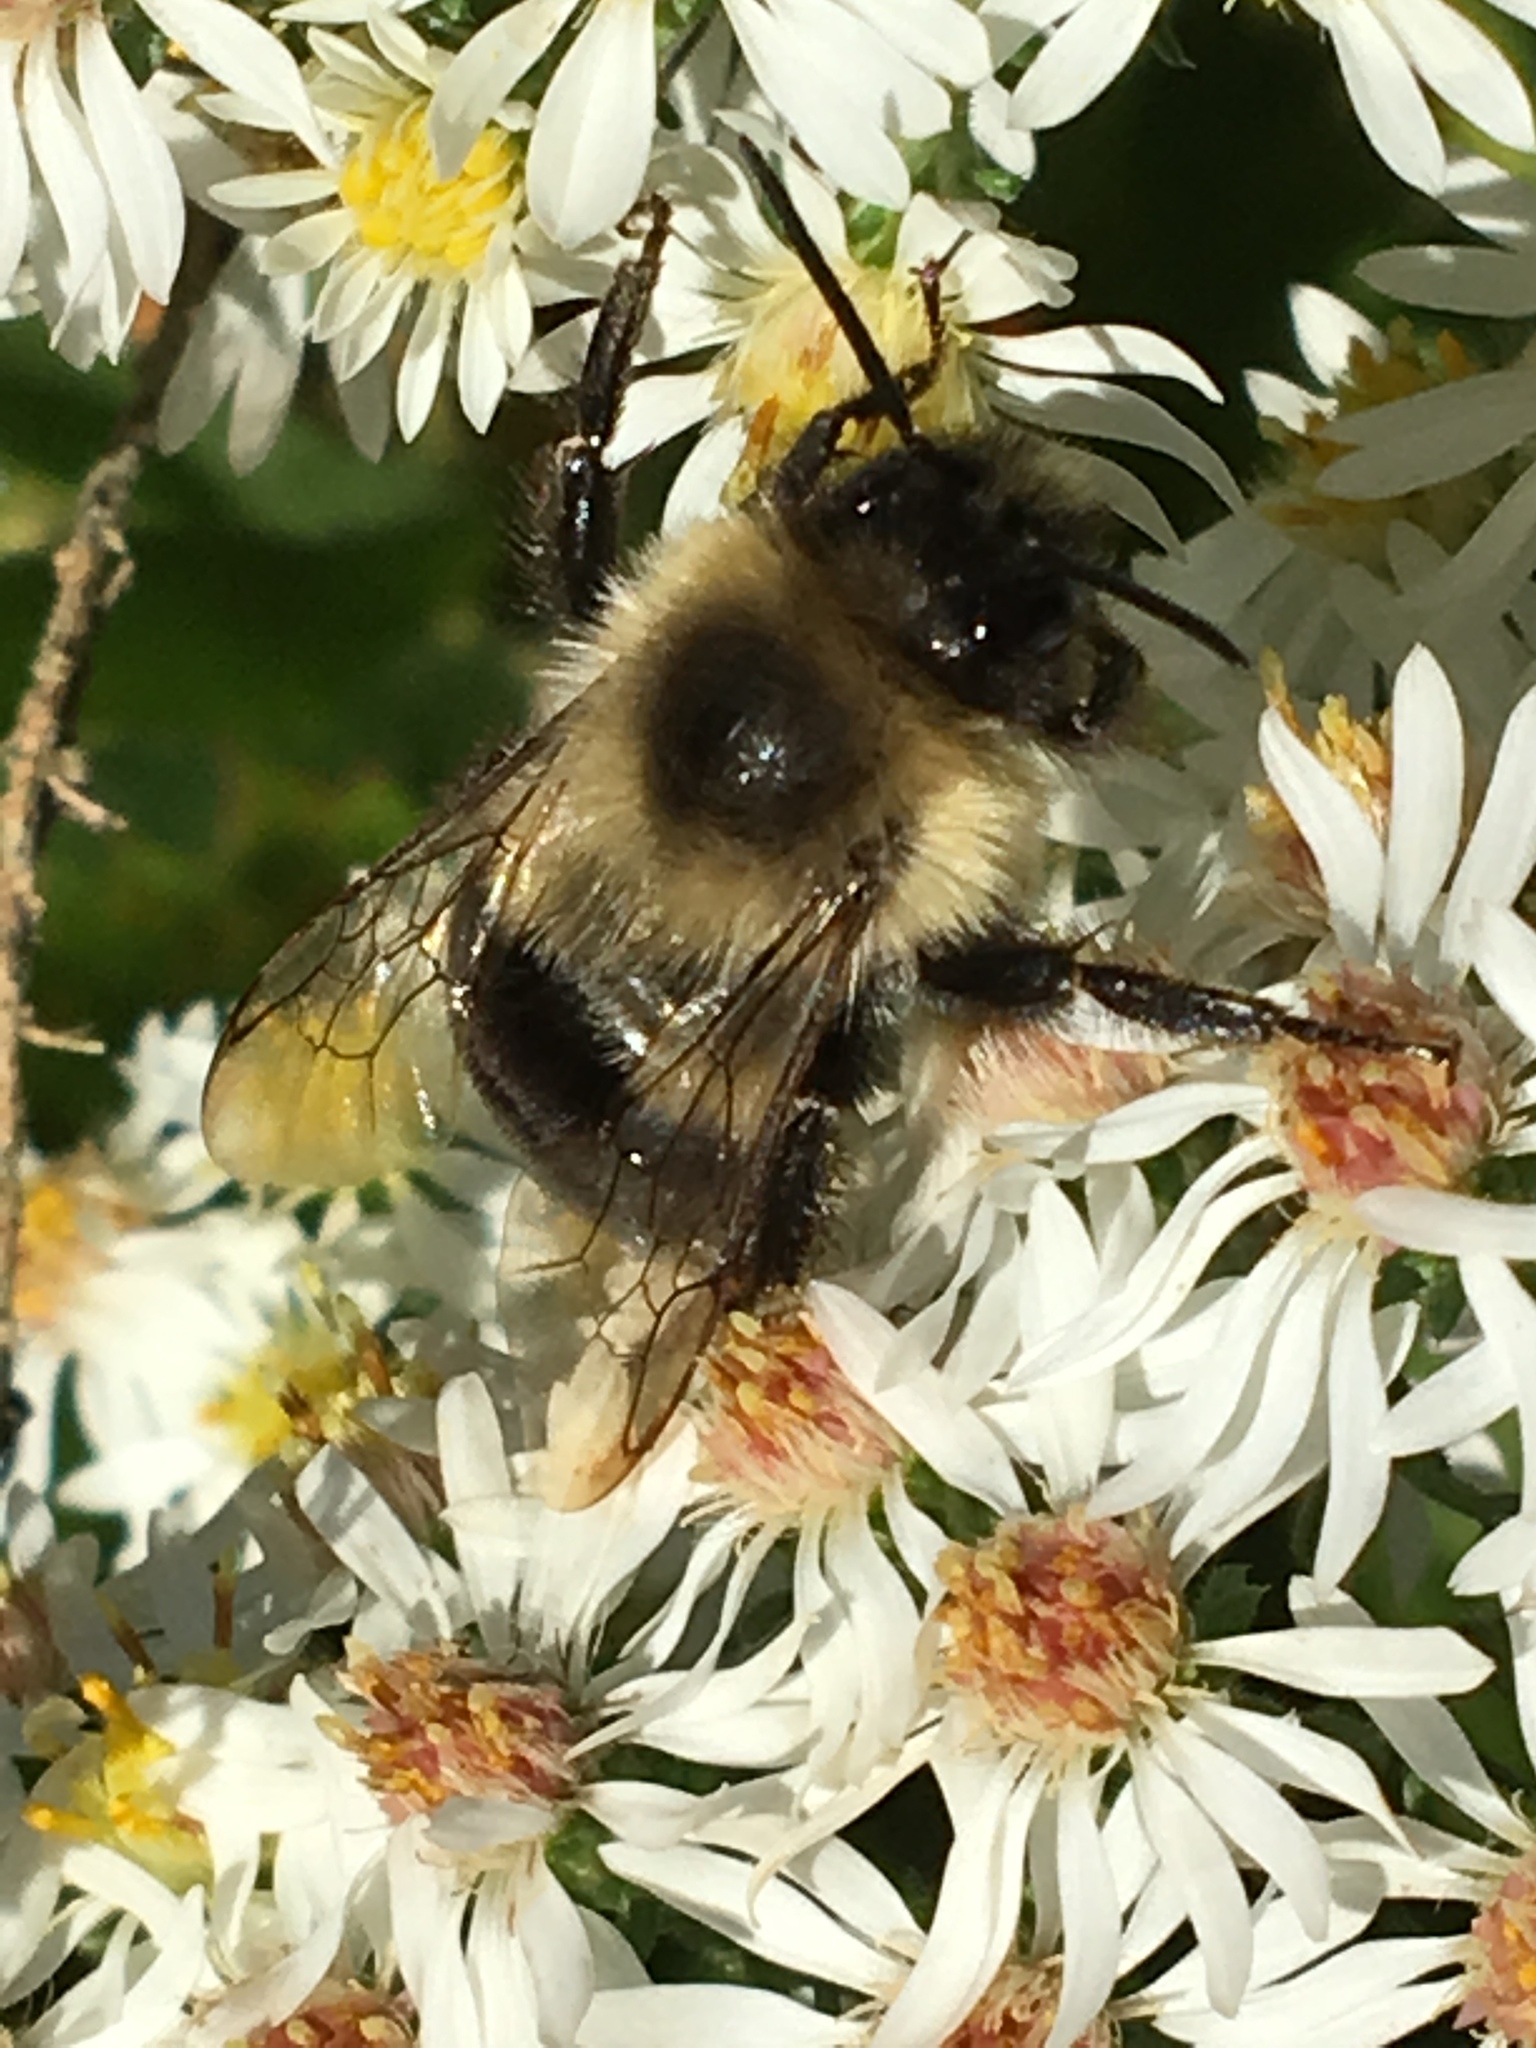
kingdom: Animalia
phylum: Arthropoda
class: Insecta
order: Hymenoptera
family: Apidae
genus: Bombus
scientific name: Bombus impatiens
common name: Common eastern bumble bee
